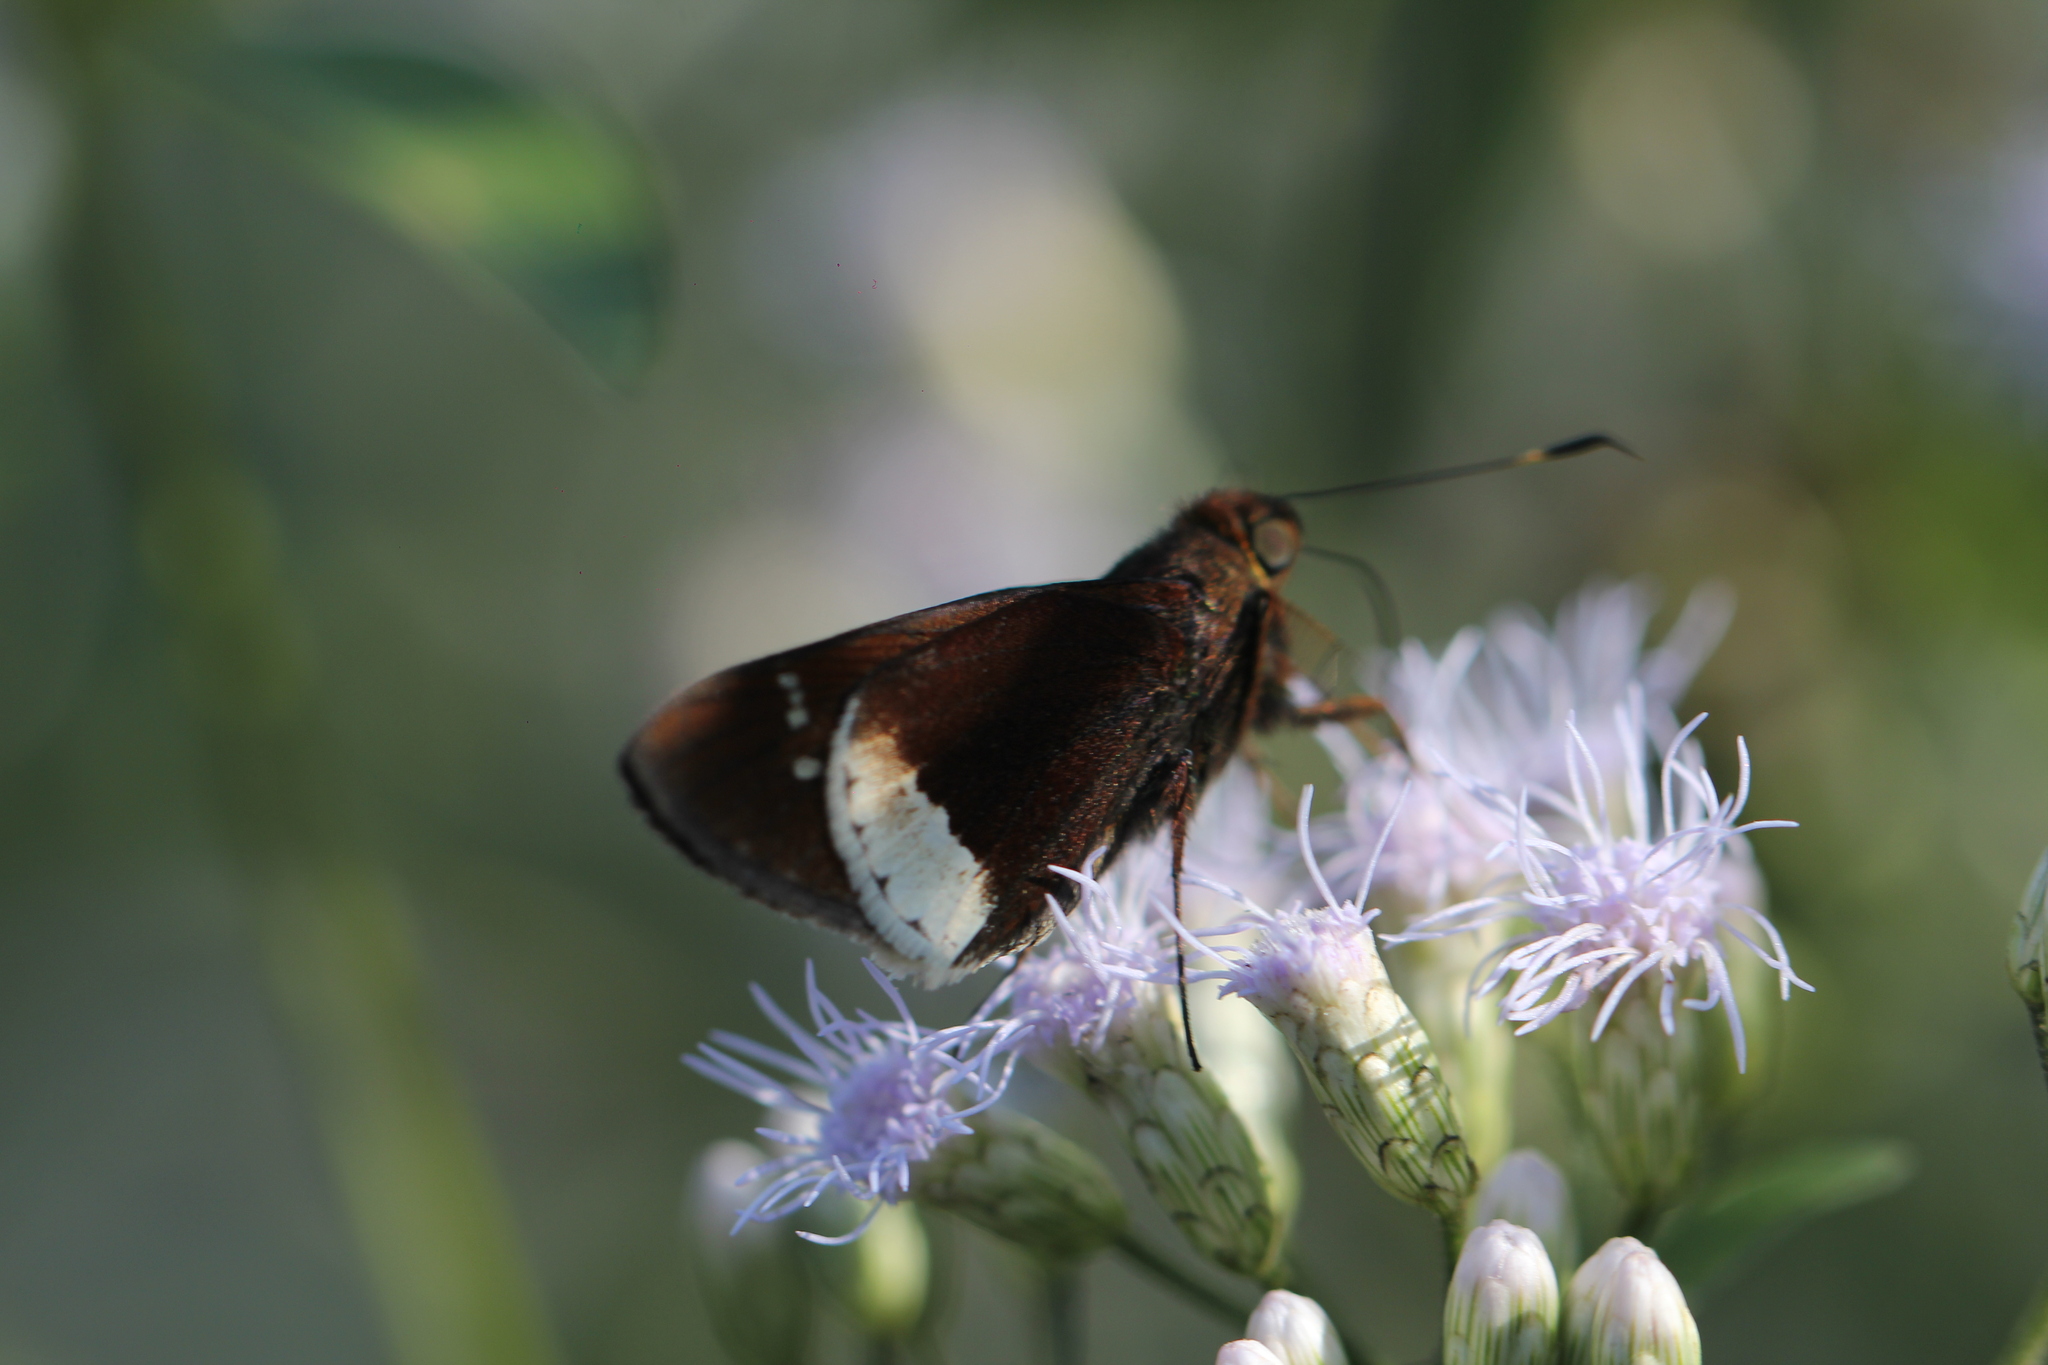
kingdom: Animalia
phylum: Arthropoda
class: Insecta
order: Lepidoptera
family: Hesperiidae
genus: Eutychide
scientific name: Eutychide physcella
